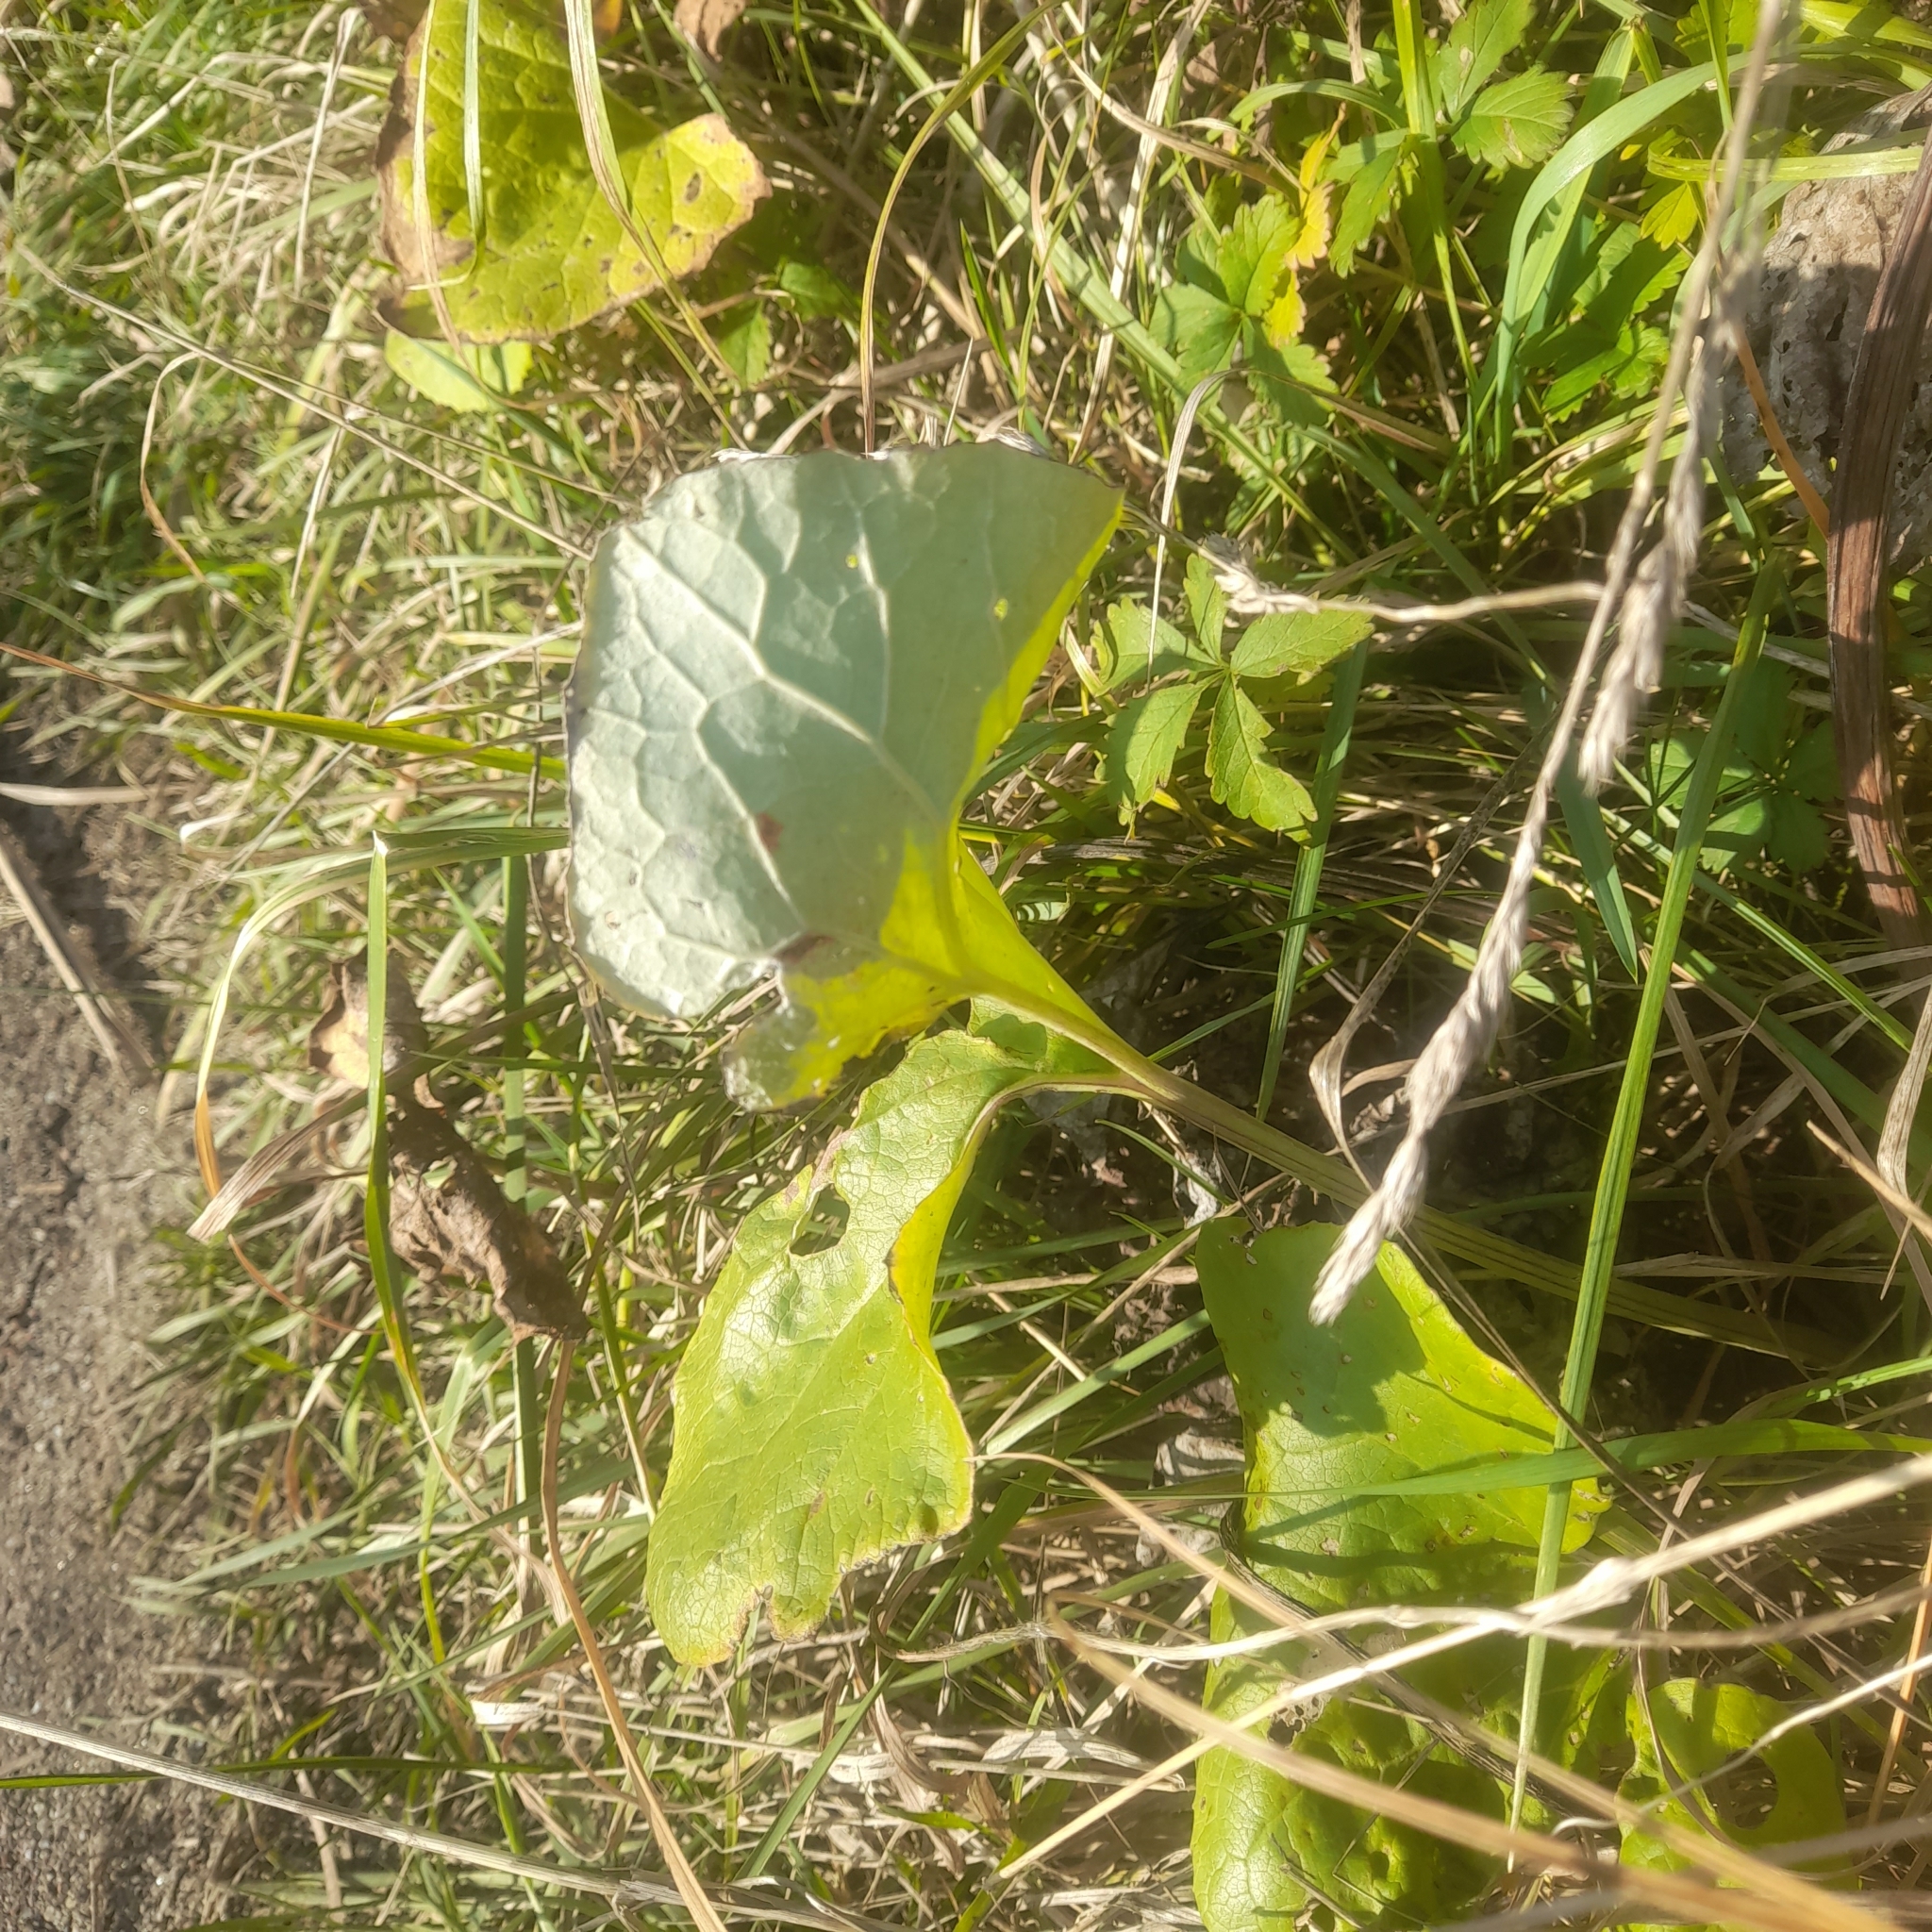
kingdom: Plantae
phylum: Tracheophyta
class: Magnoliopsida
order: Asterales
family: Asteraceae
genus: Petasites
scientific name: Petasites spurius
